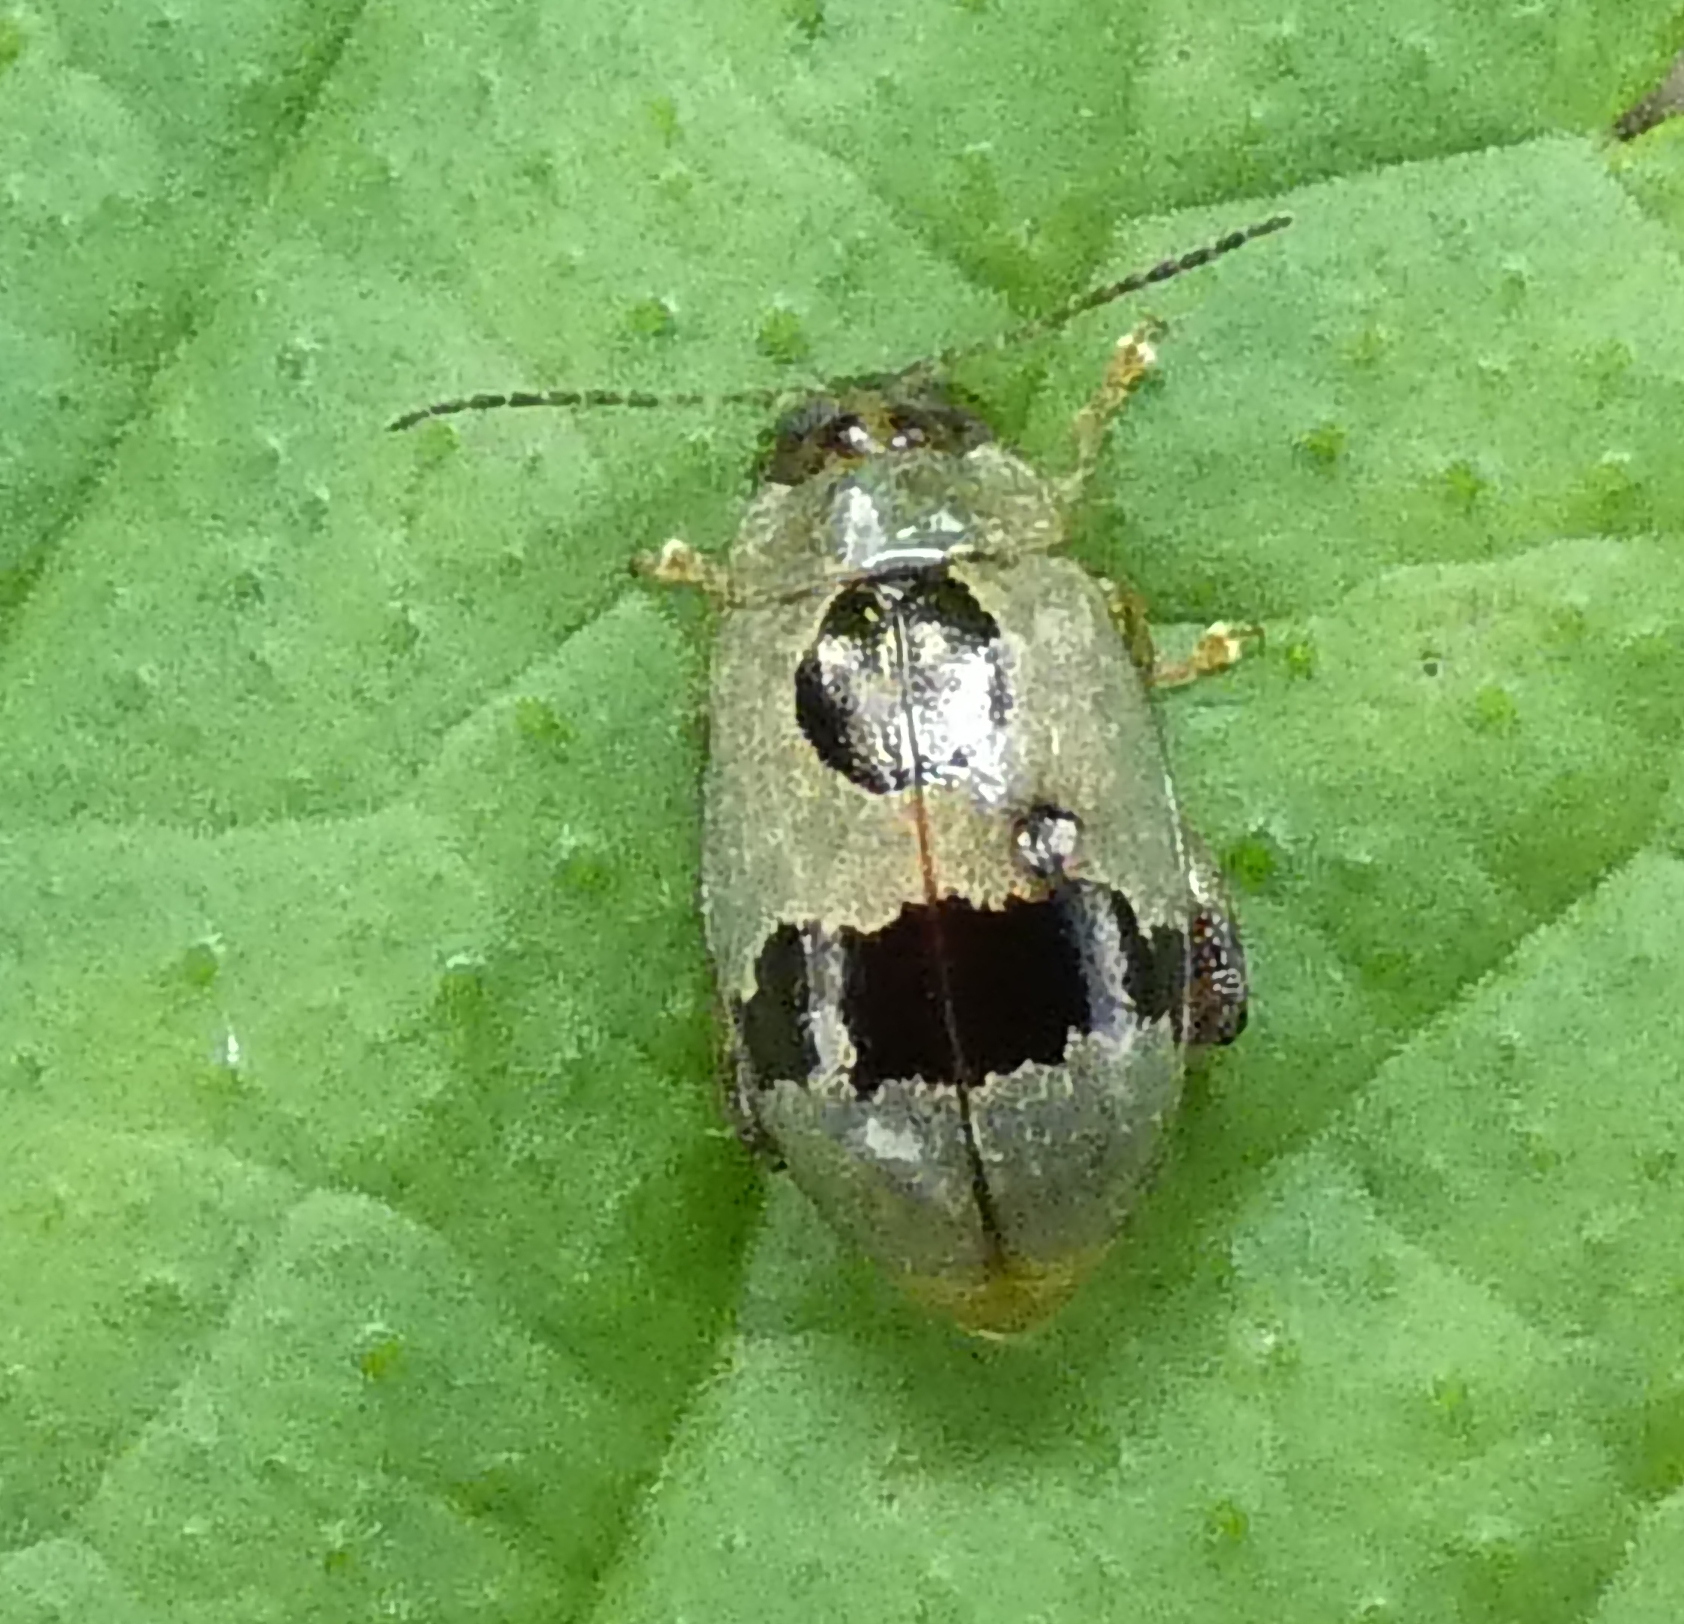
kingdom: Animalia
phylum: Arthropoda
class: Insecta
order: Coleoptera
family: Chrysomelidae
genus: Alagoasa
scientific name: Alagoasa
